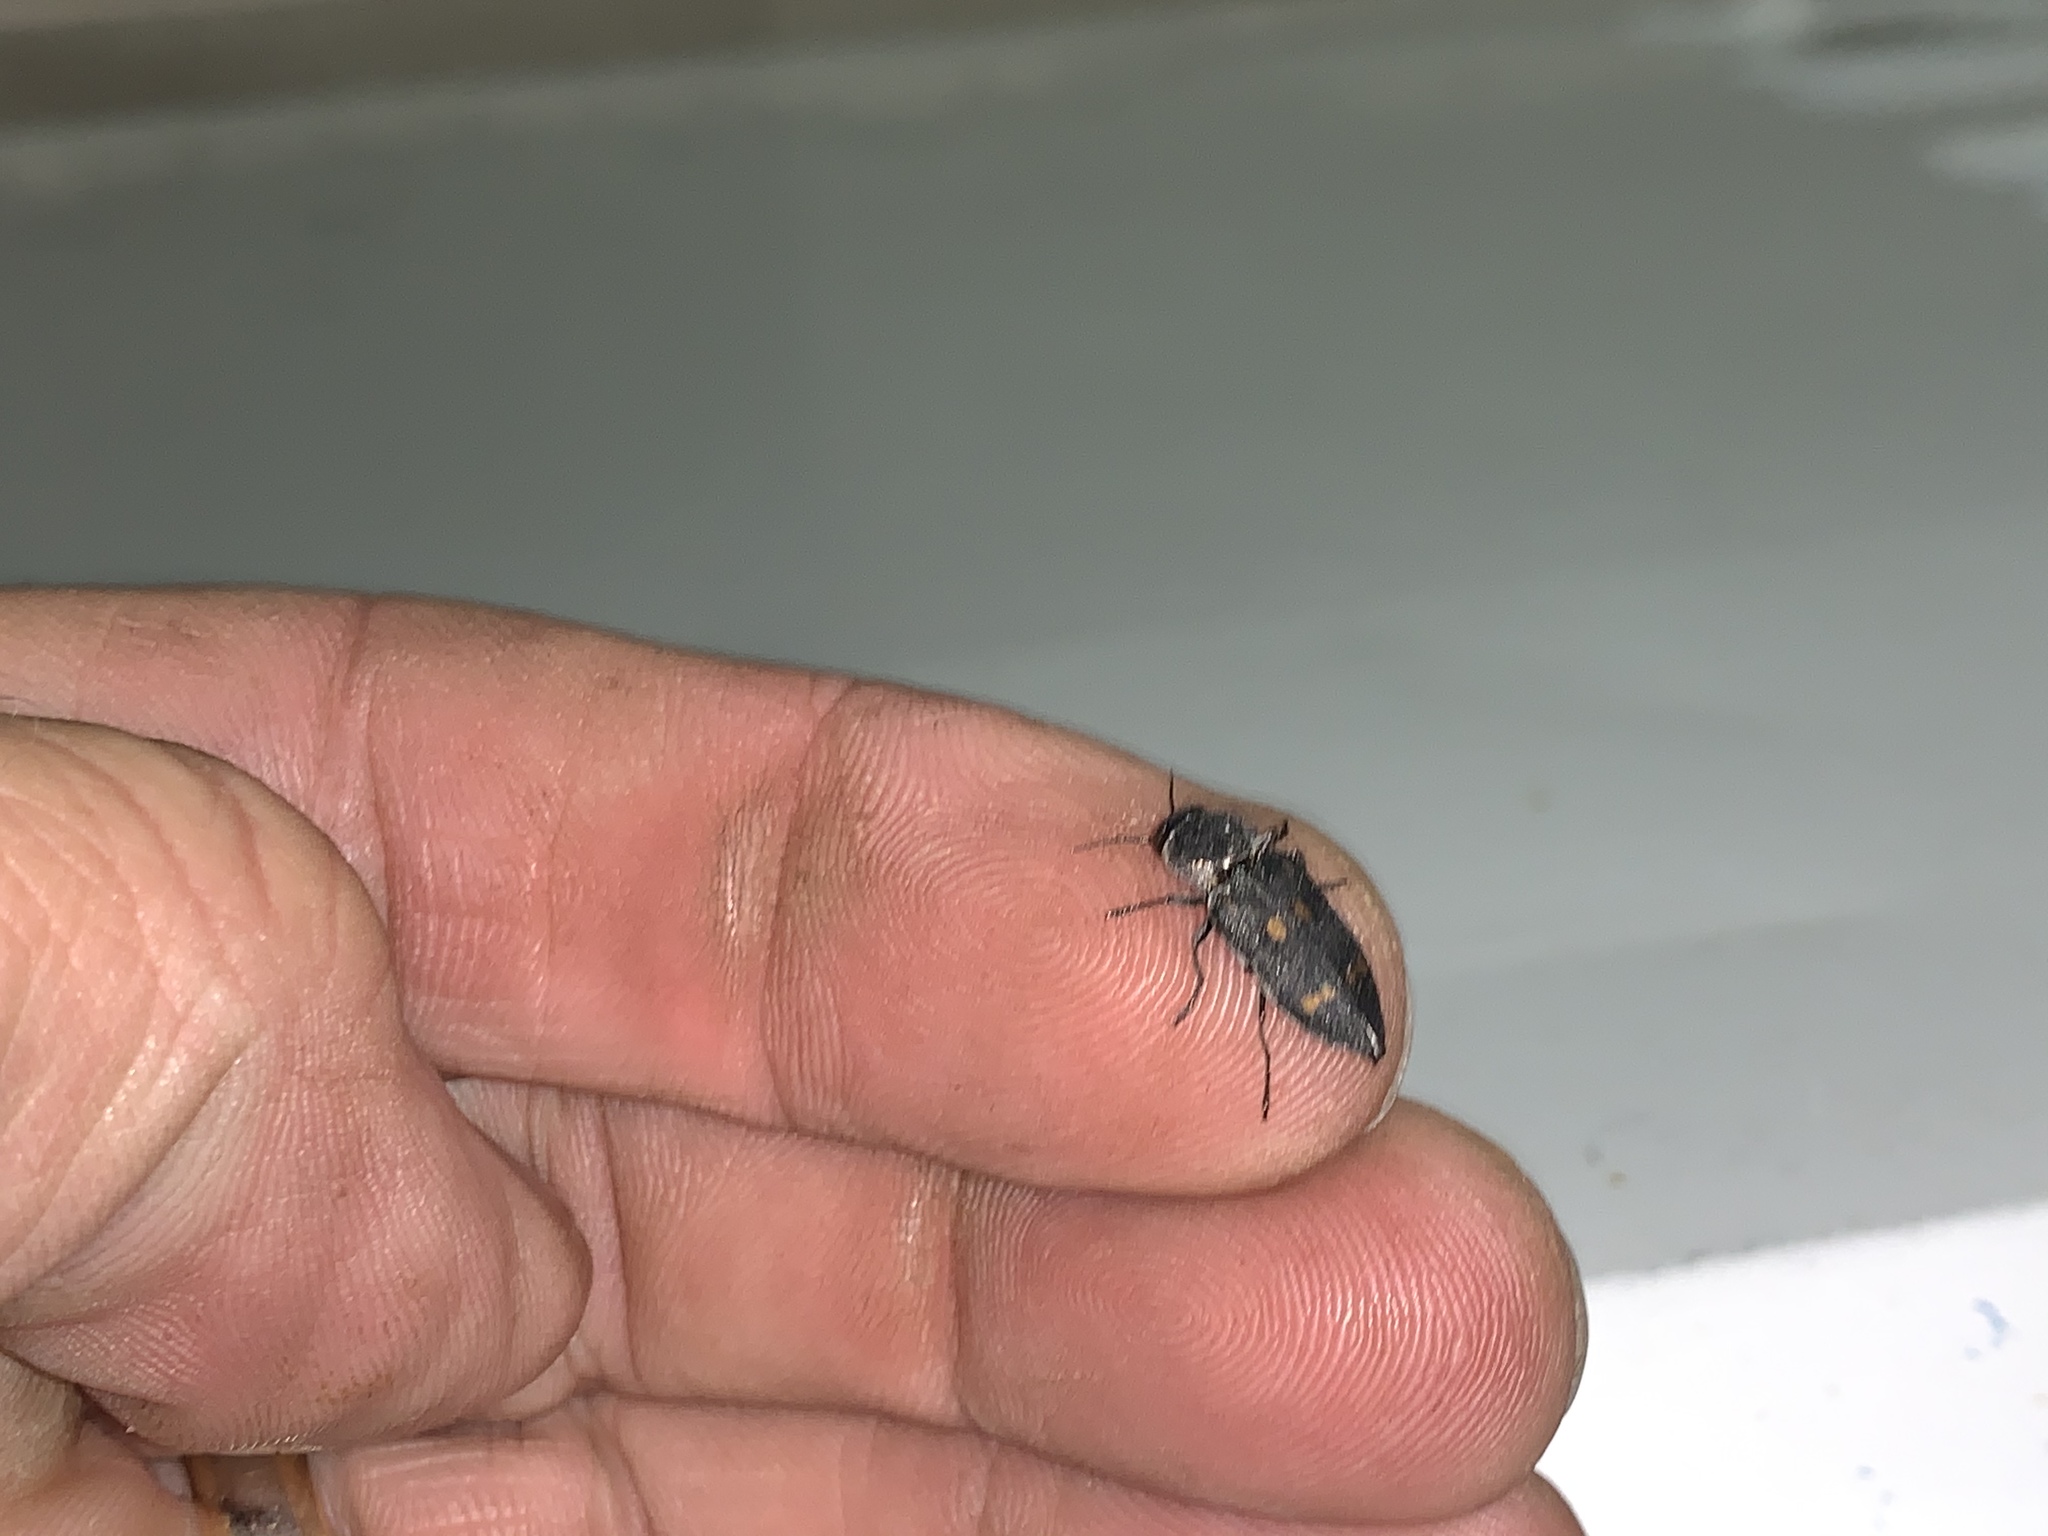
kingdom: Animalia
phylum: Arthropoda
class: Insecta
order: Coleoptera
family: Buprestidae
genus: Melanophila
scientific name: Melanophila notata
